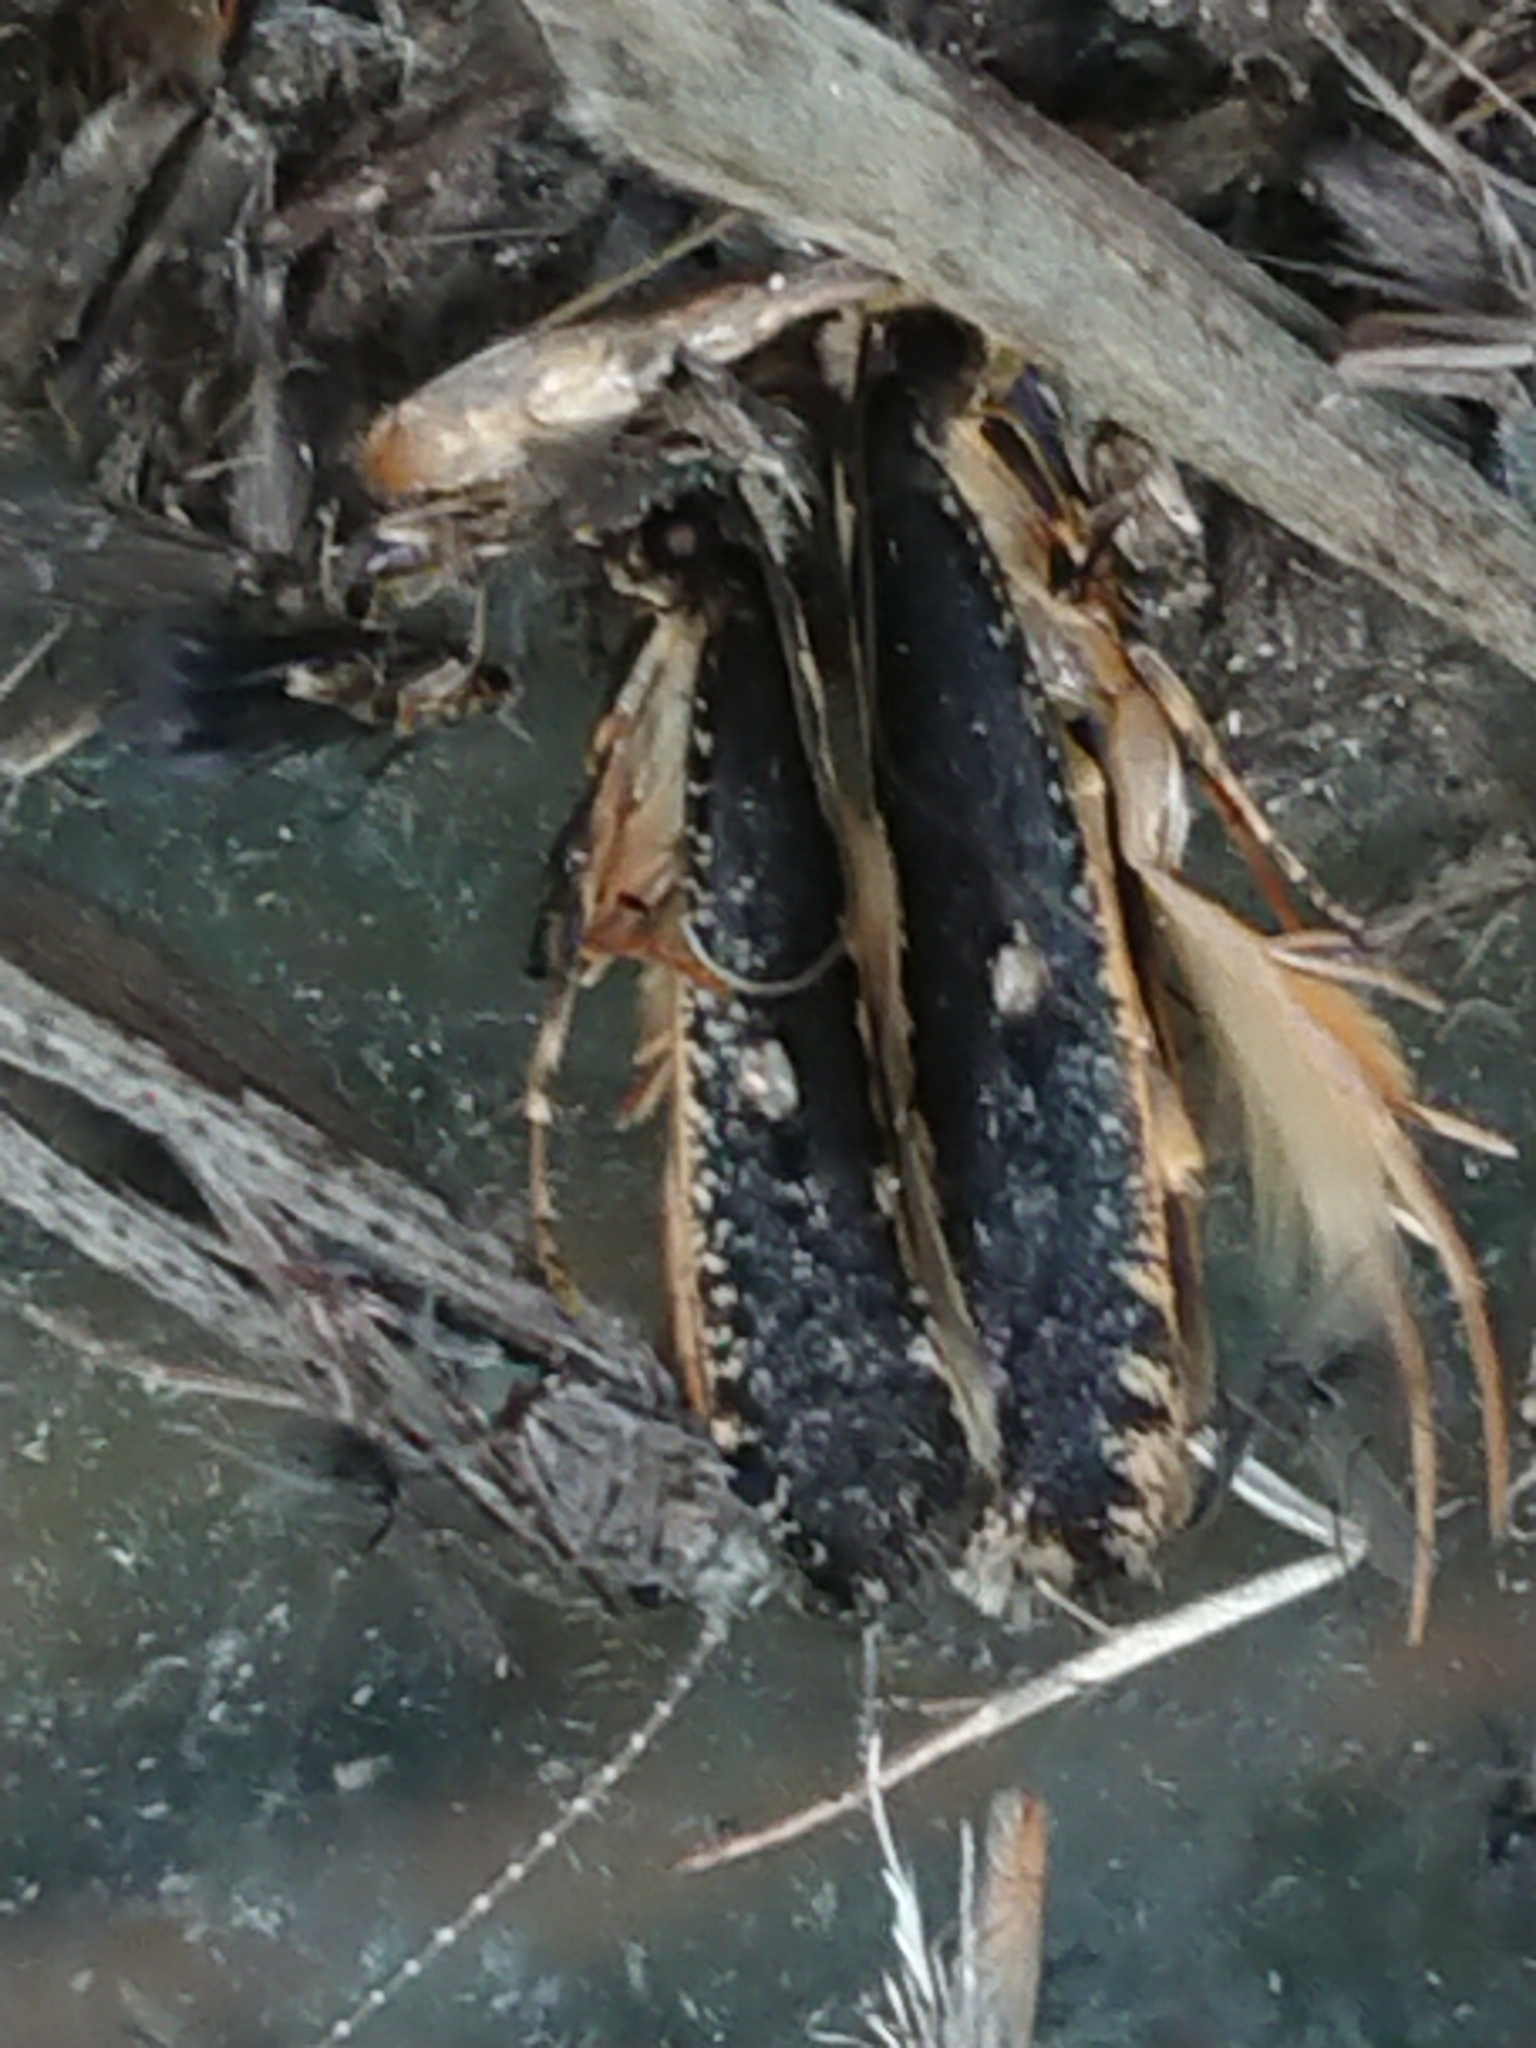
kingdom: Animalia
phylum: Arthropoda
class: Insecta
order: Lepidoptera
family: Tineidae
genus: Monopis
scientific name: Monopis ethelella
